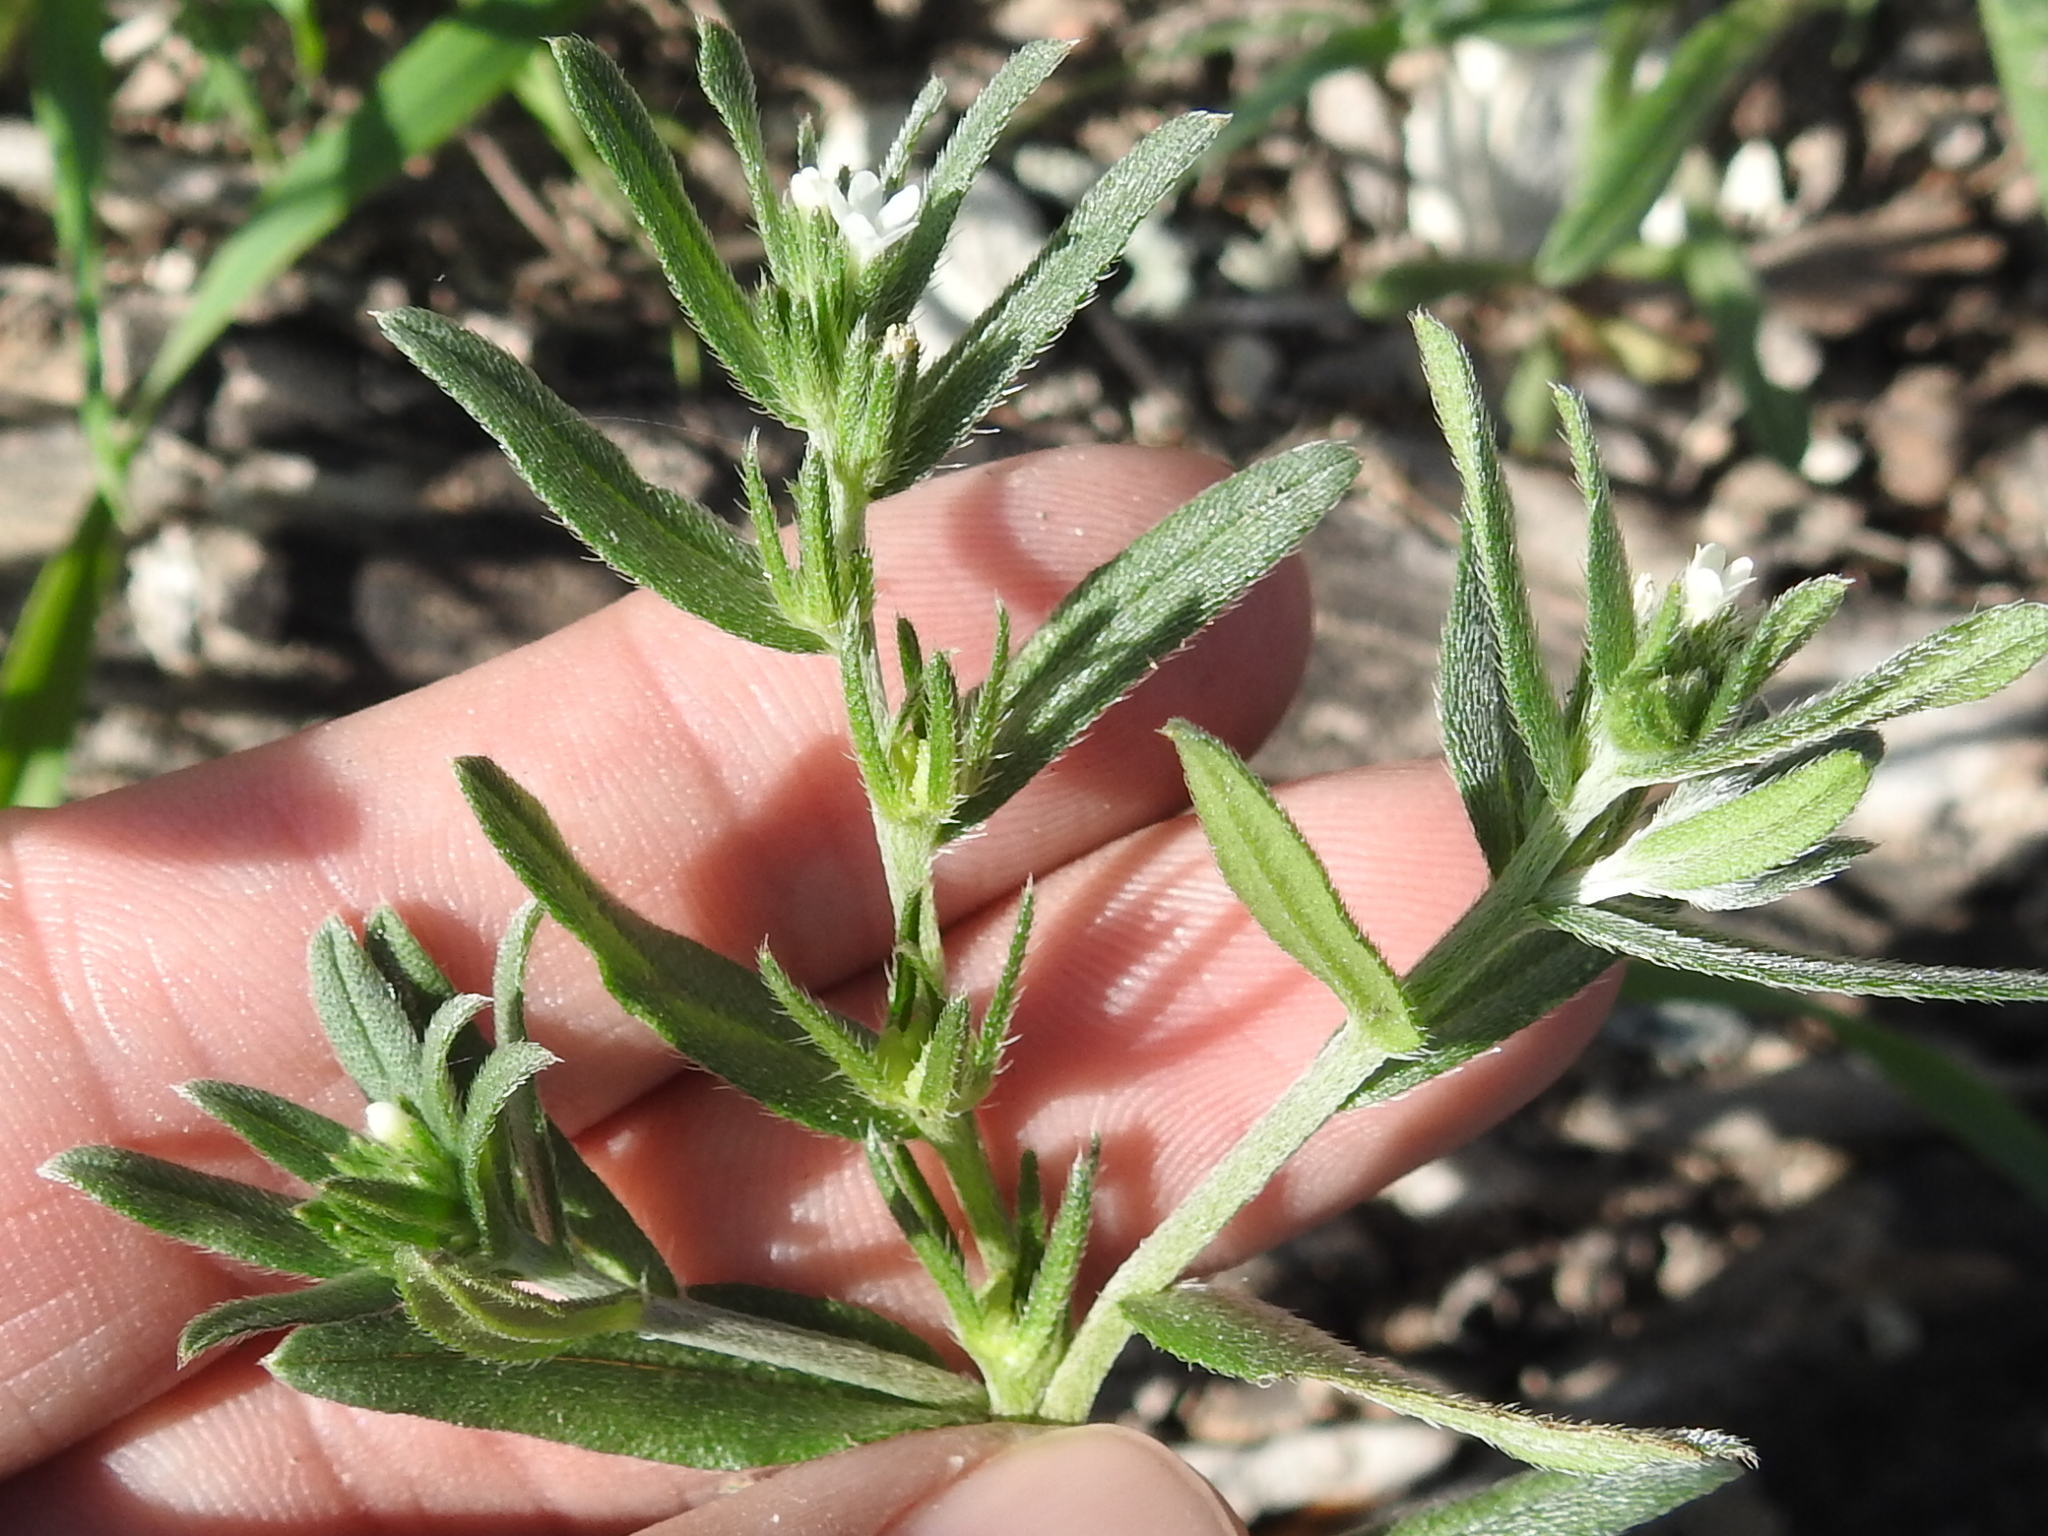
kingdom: Plantae
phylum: Tracheophyta
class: Magnoliopsida
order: Boraginales
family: Boraginaceae
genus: Buglossoides
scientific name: Buglossoides arvensis
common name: Corn gromwell
